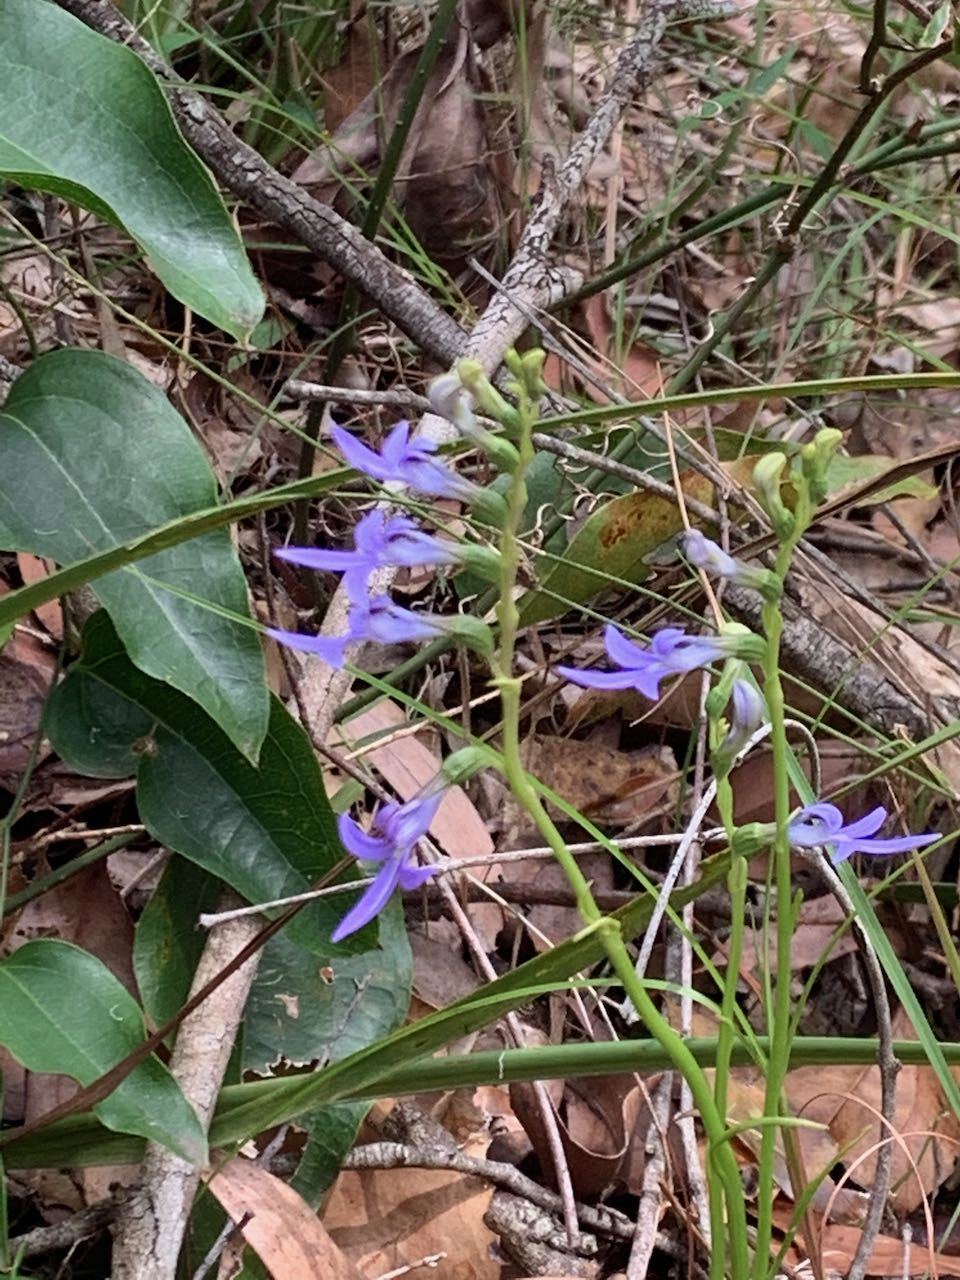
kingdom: Plantae
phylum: Tracheophyta
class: Magnoliopsida
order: Asterales
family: Campanulaceae
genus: Lobelia
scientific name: Lobelia gibbosa
